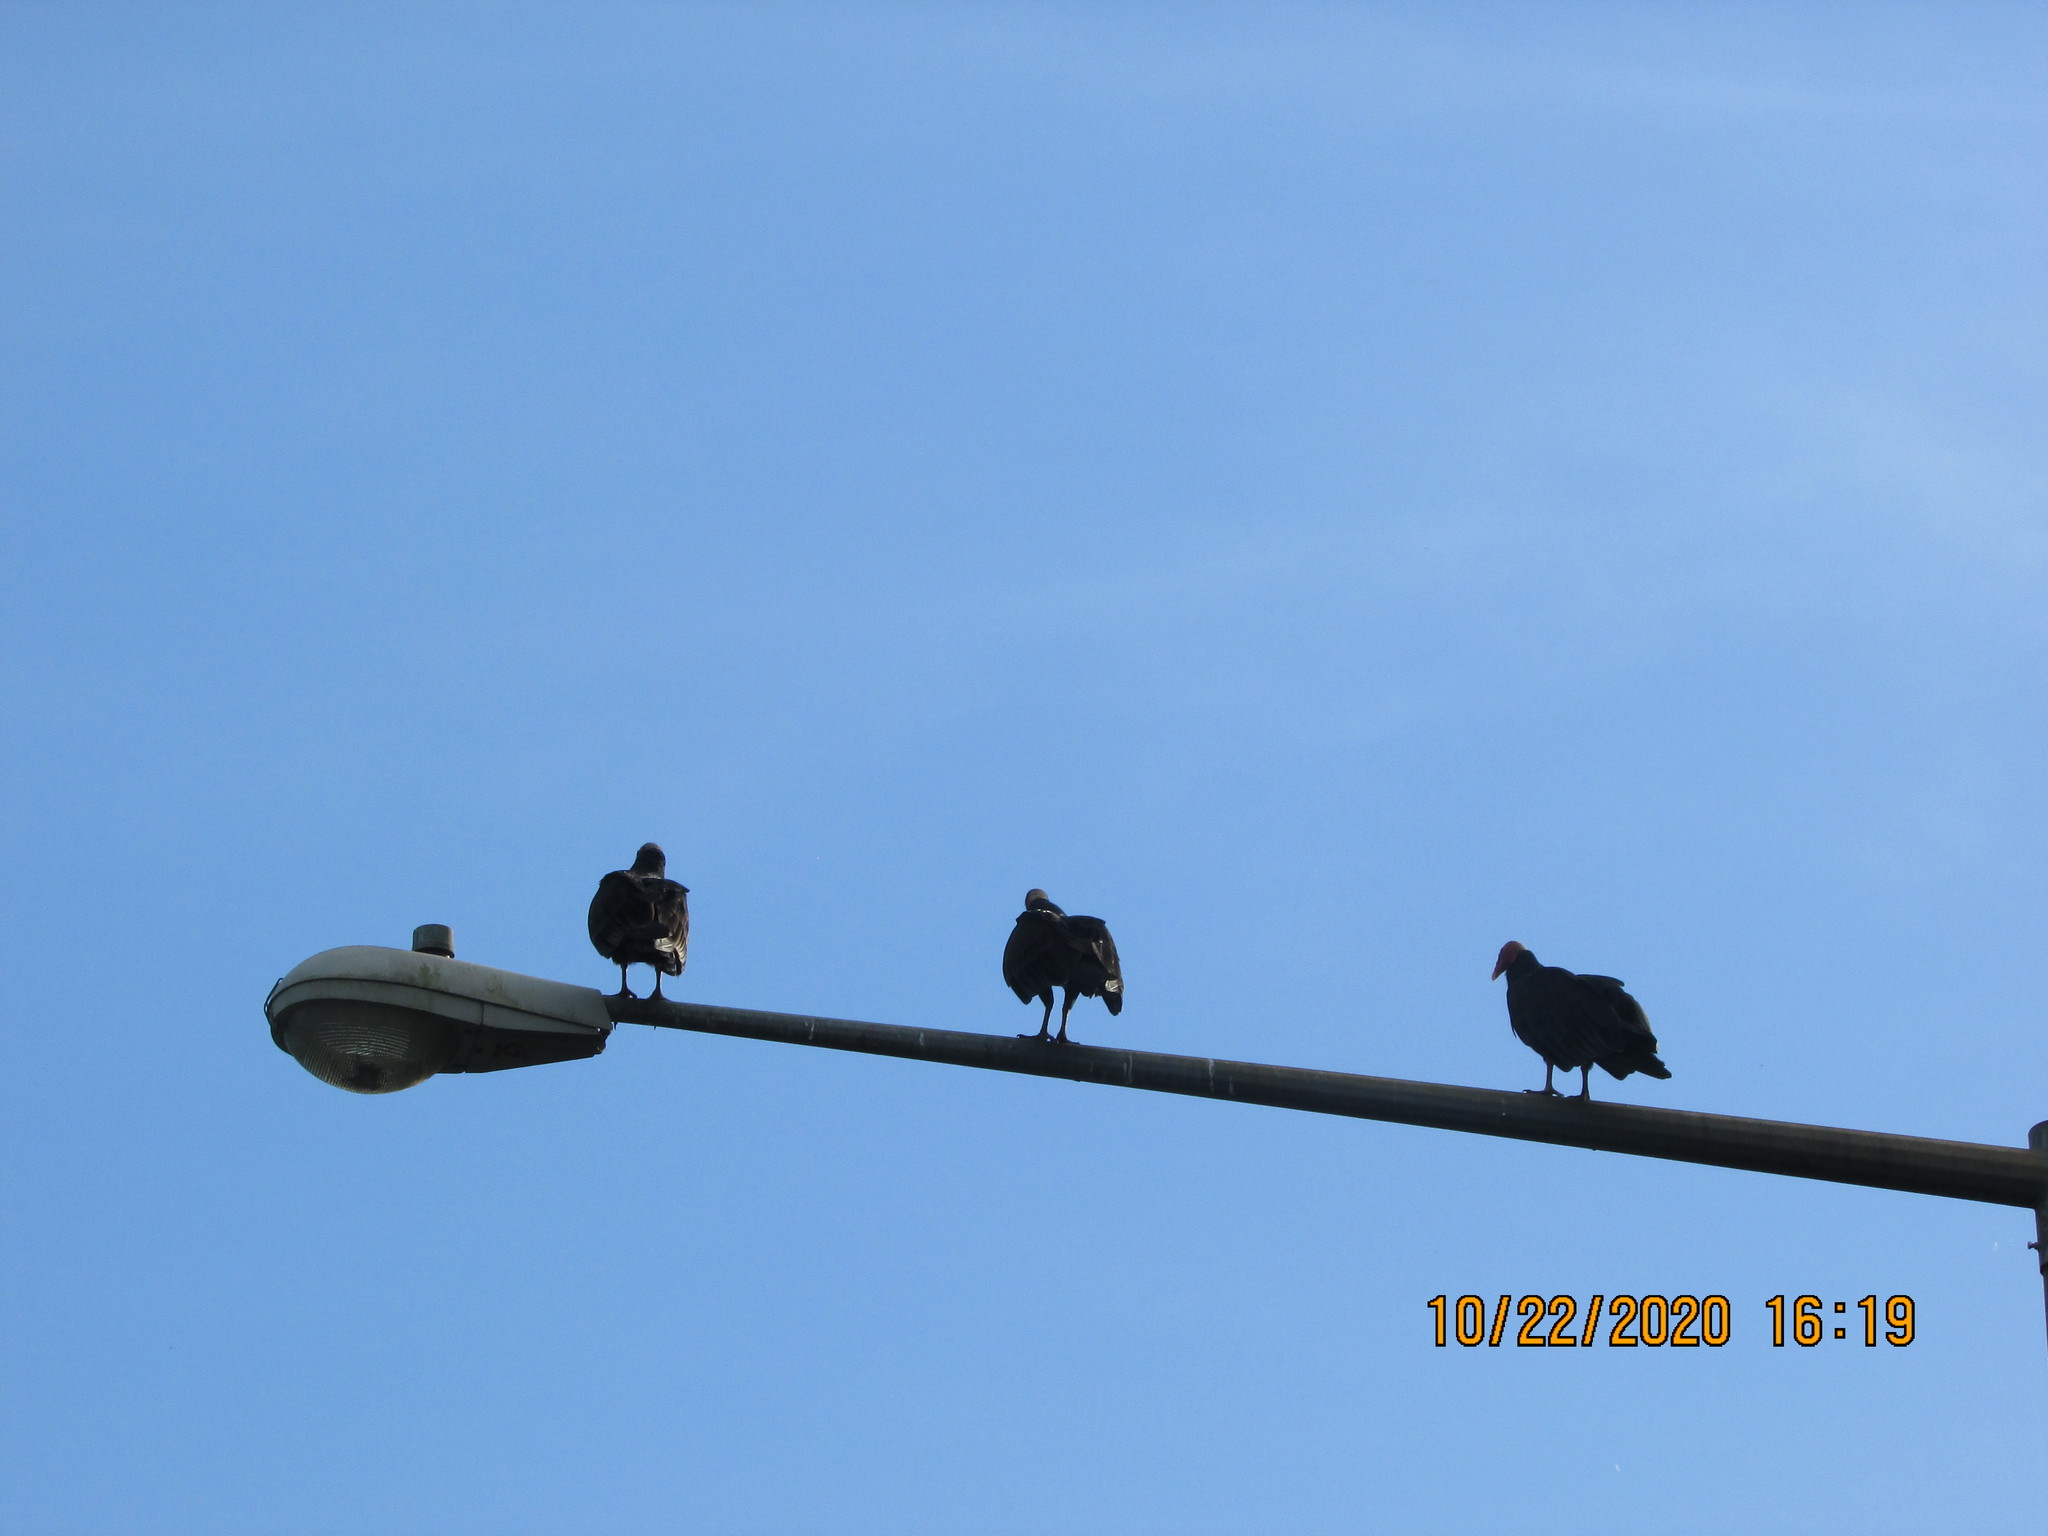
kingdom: Animalia
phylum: Chordata
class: Aves
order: Accipitriformes
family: Cathartidae
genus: Cathartes
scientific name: Cathartes aura
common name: Turkey vulture
